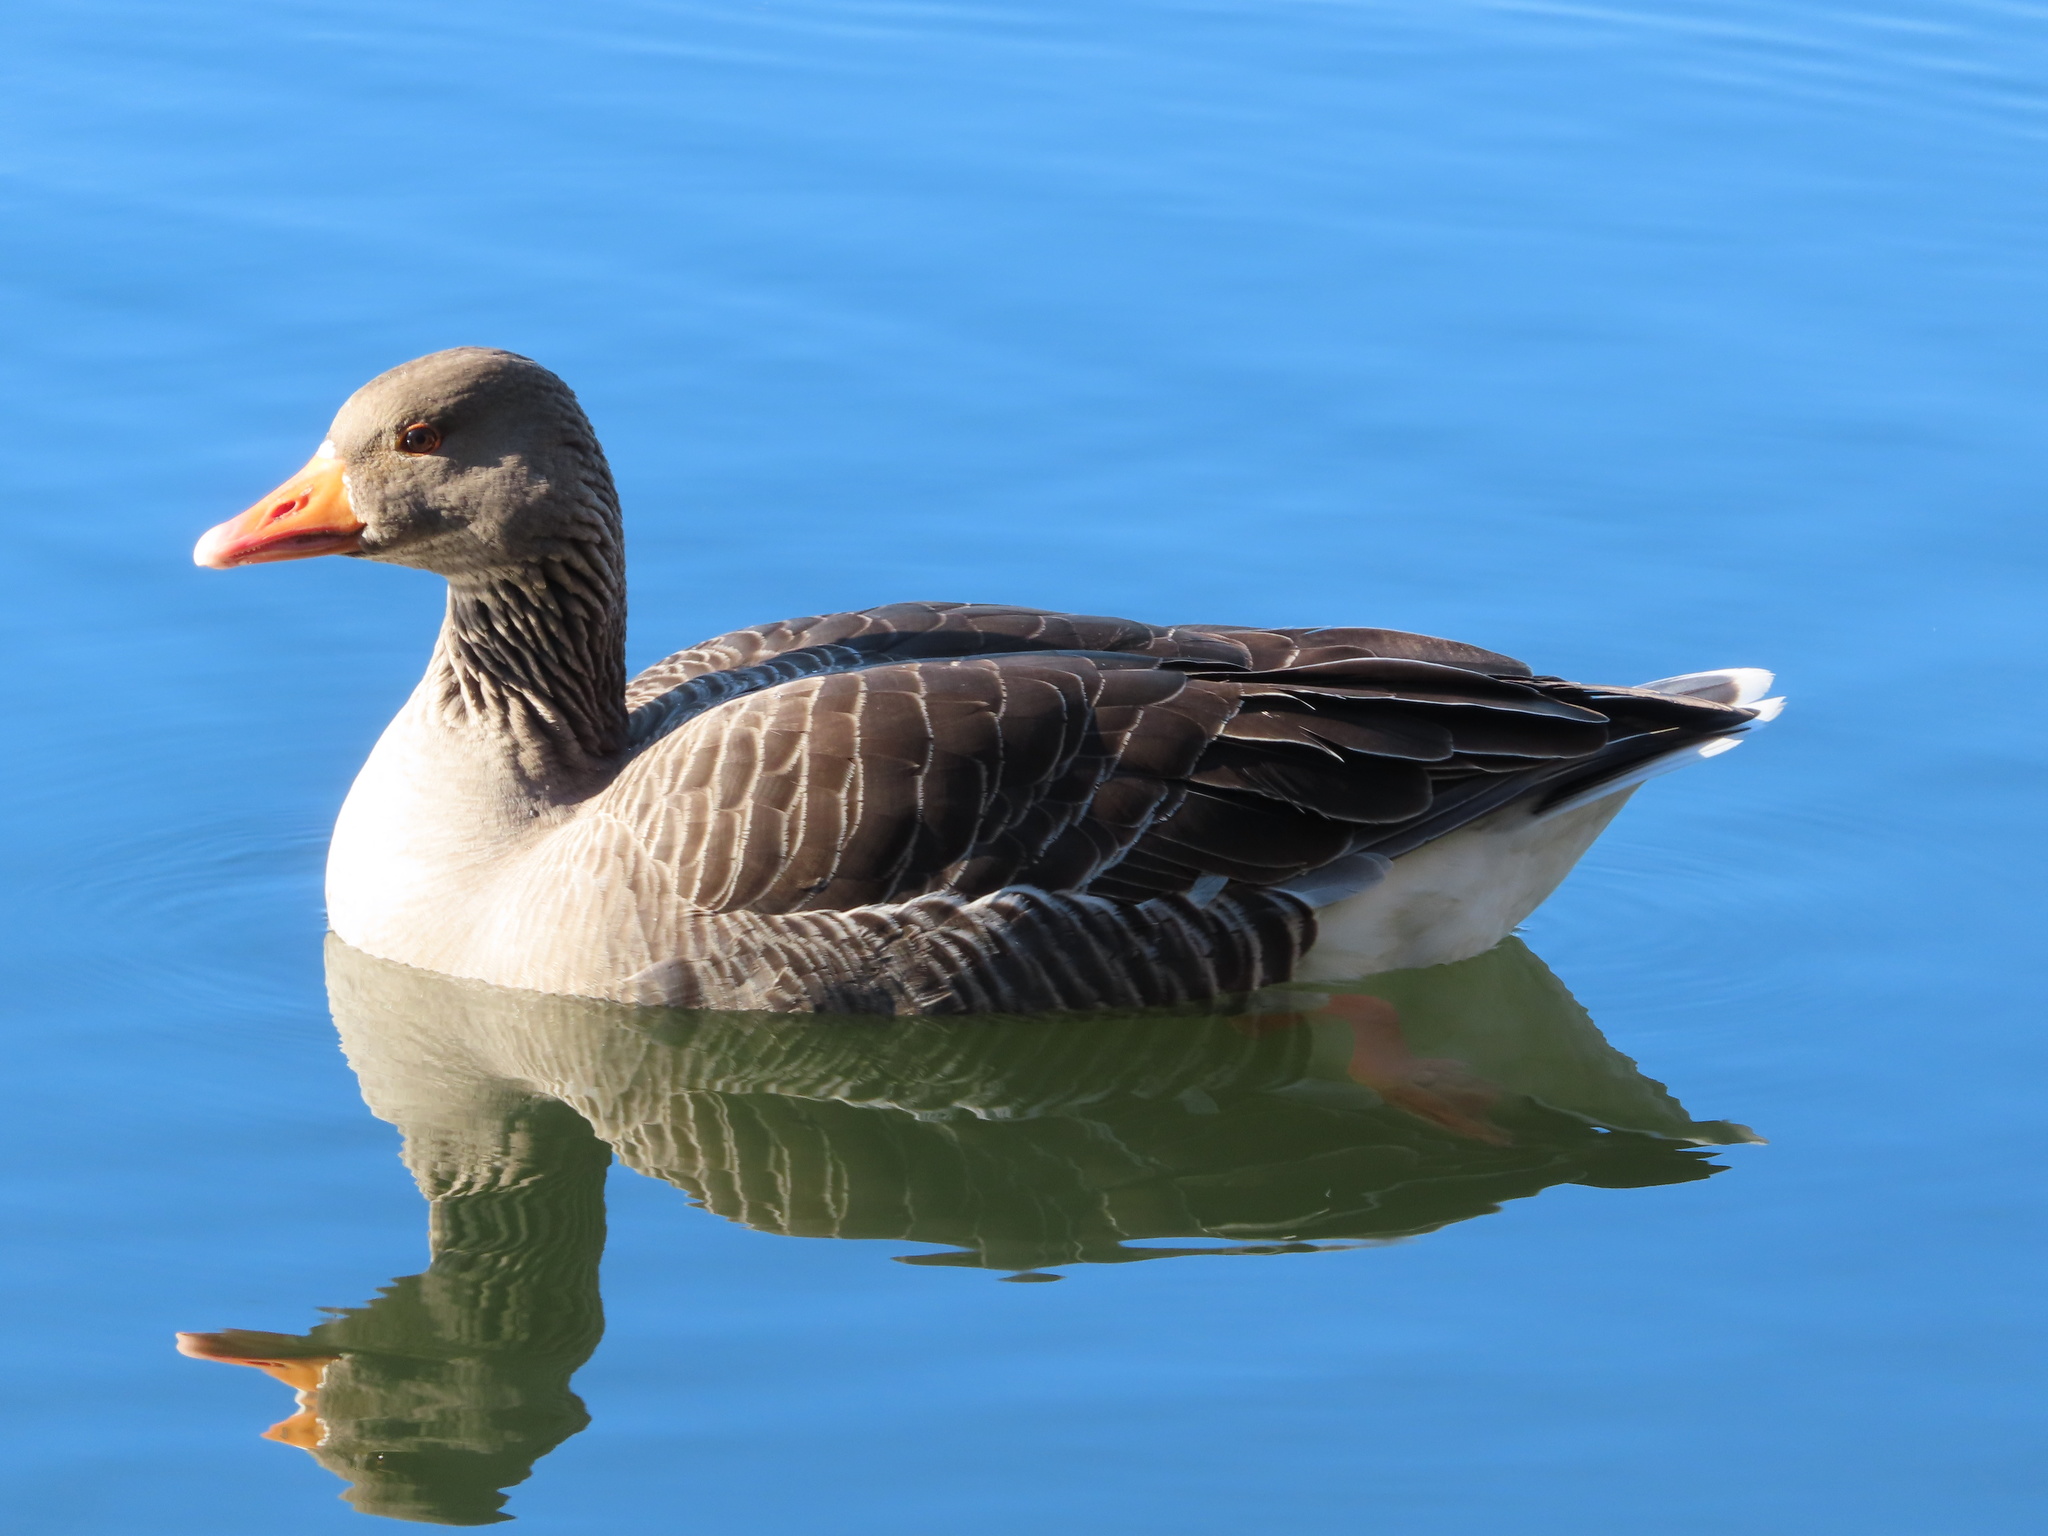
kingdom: Animalia
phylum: Chordata
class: Aves
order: Anseriformes
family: Anatidae
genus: Anser
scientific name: Anser anser
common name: Greylag goose
